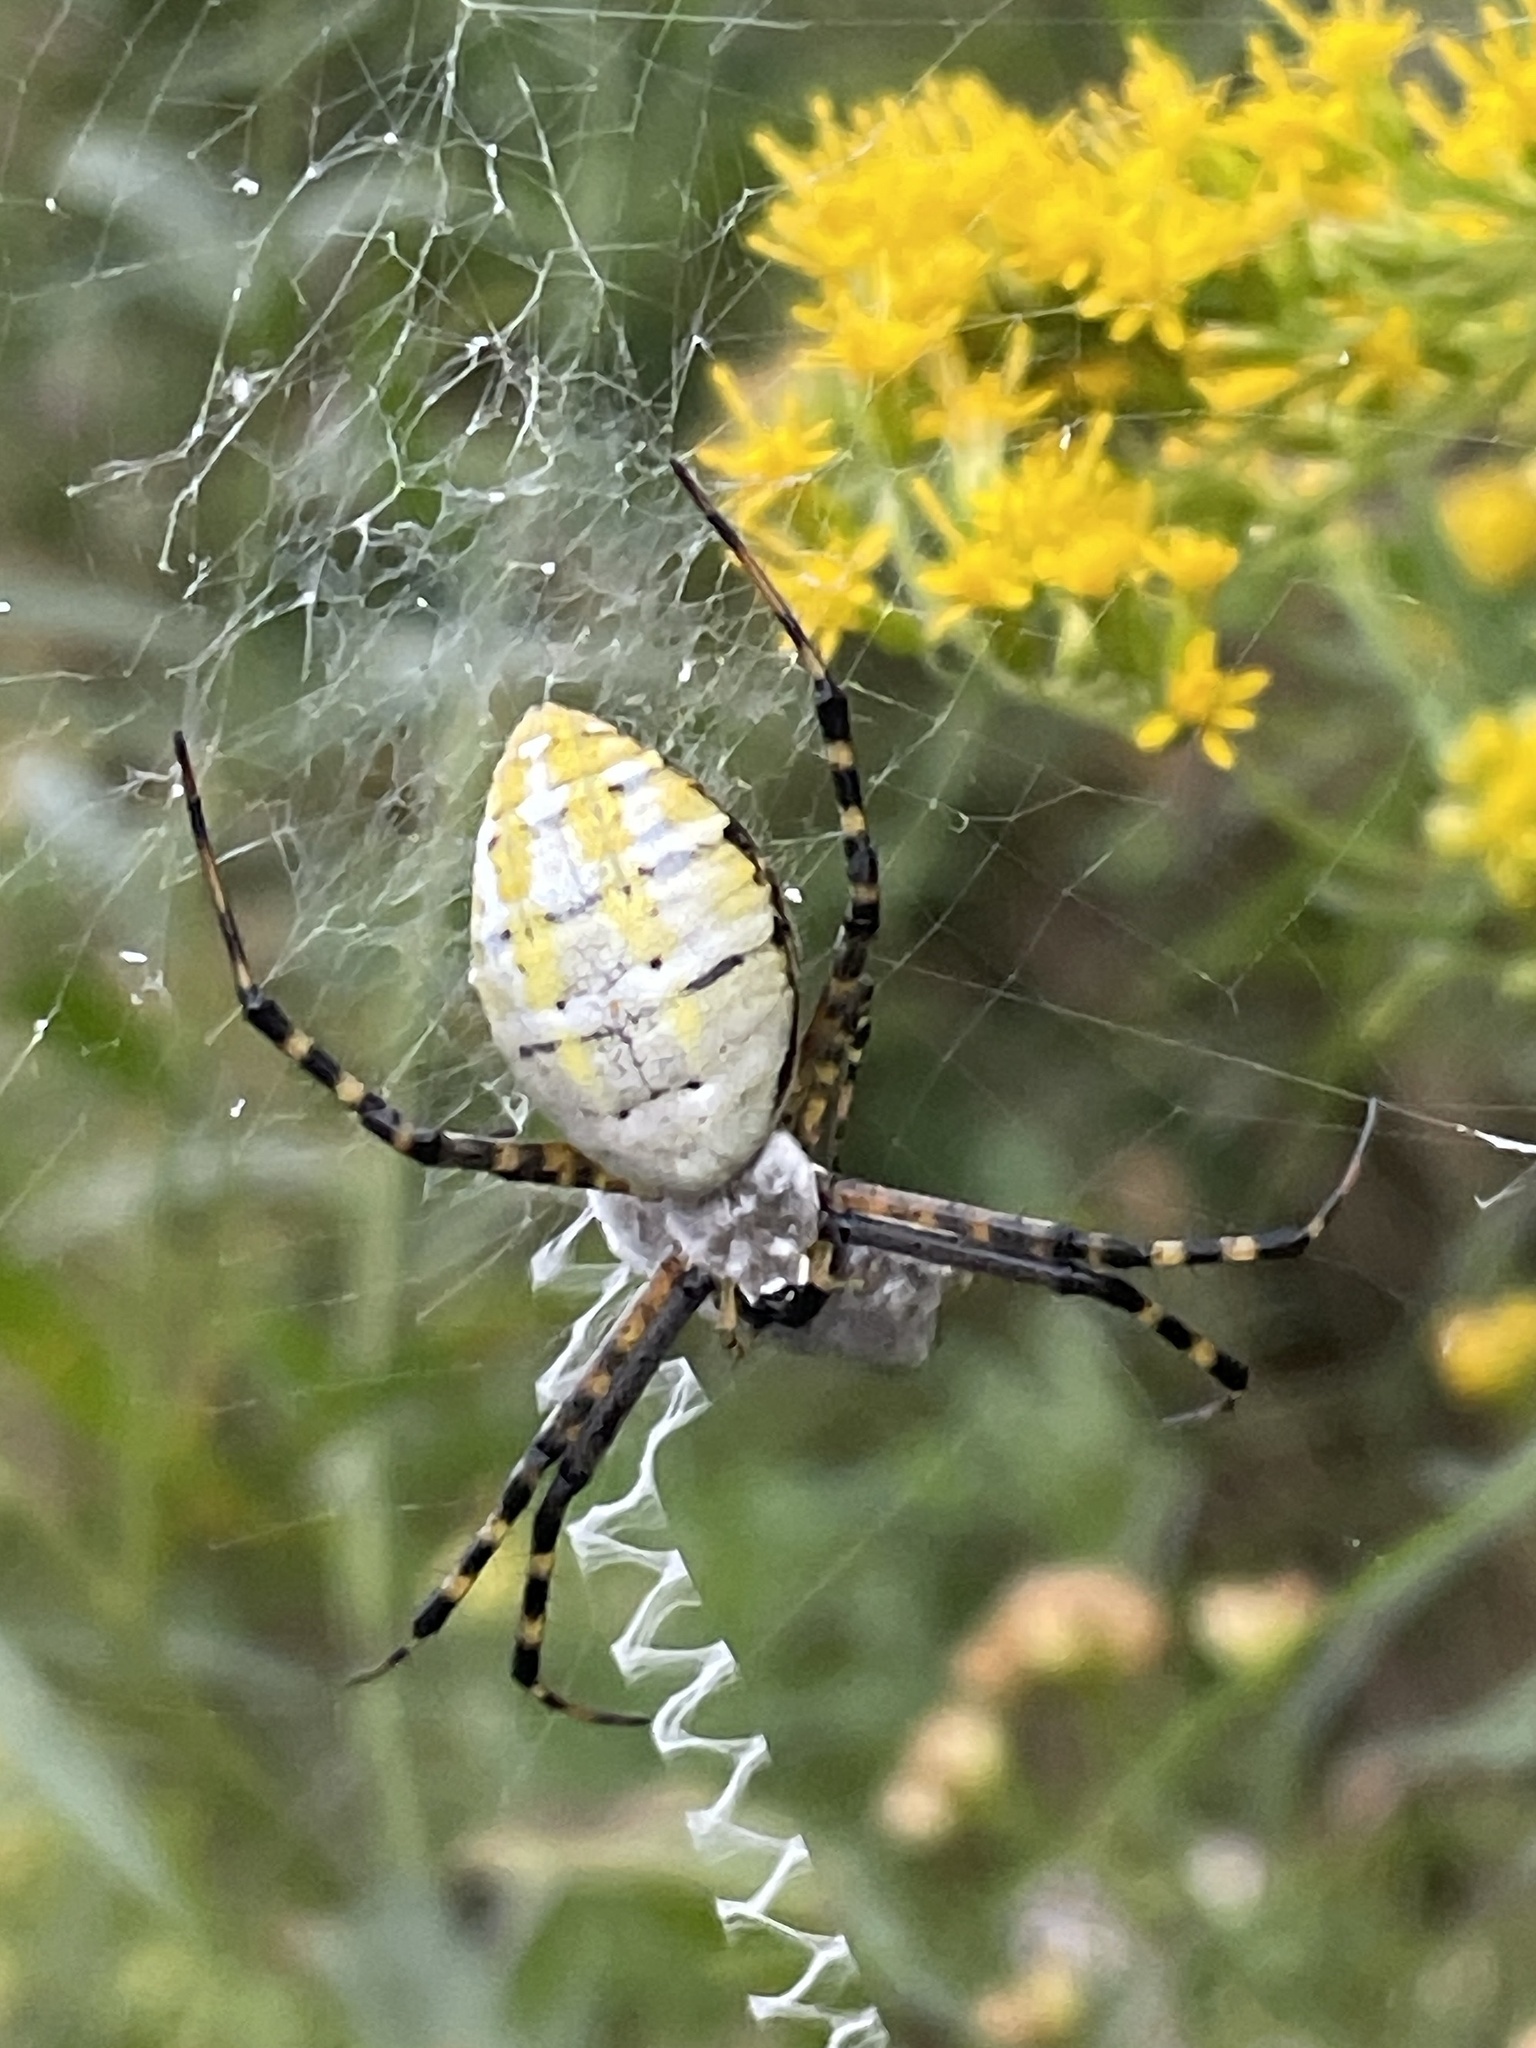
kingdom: Animalia
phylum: Arthropoda
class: Arachnida
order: Araneae
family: Araneidae
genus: Argiope
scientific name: Argiope trifasciata
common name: Banded garden spider
